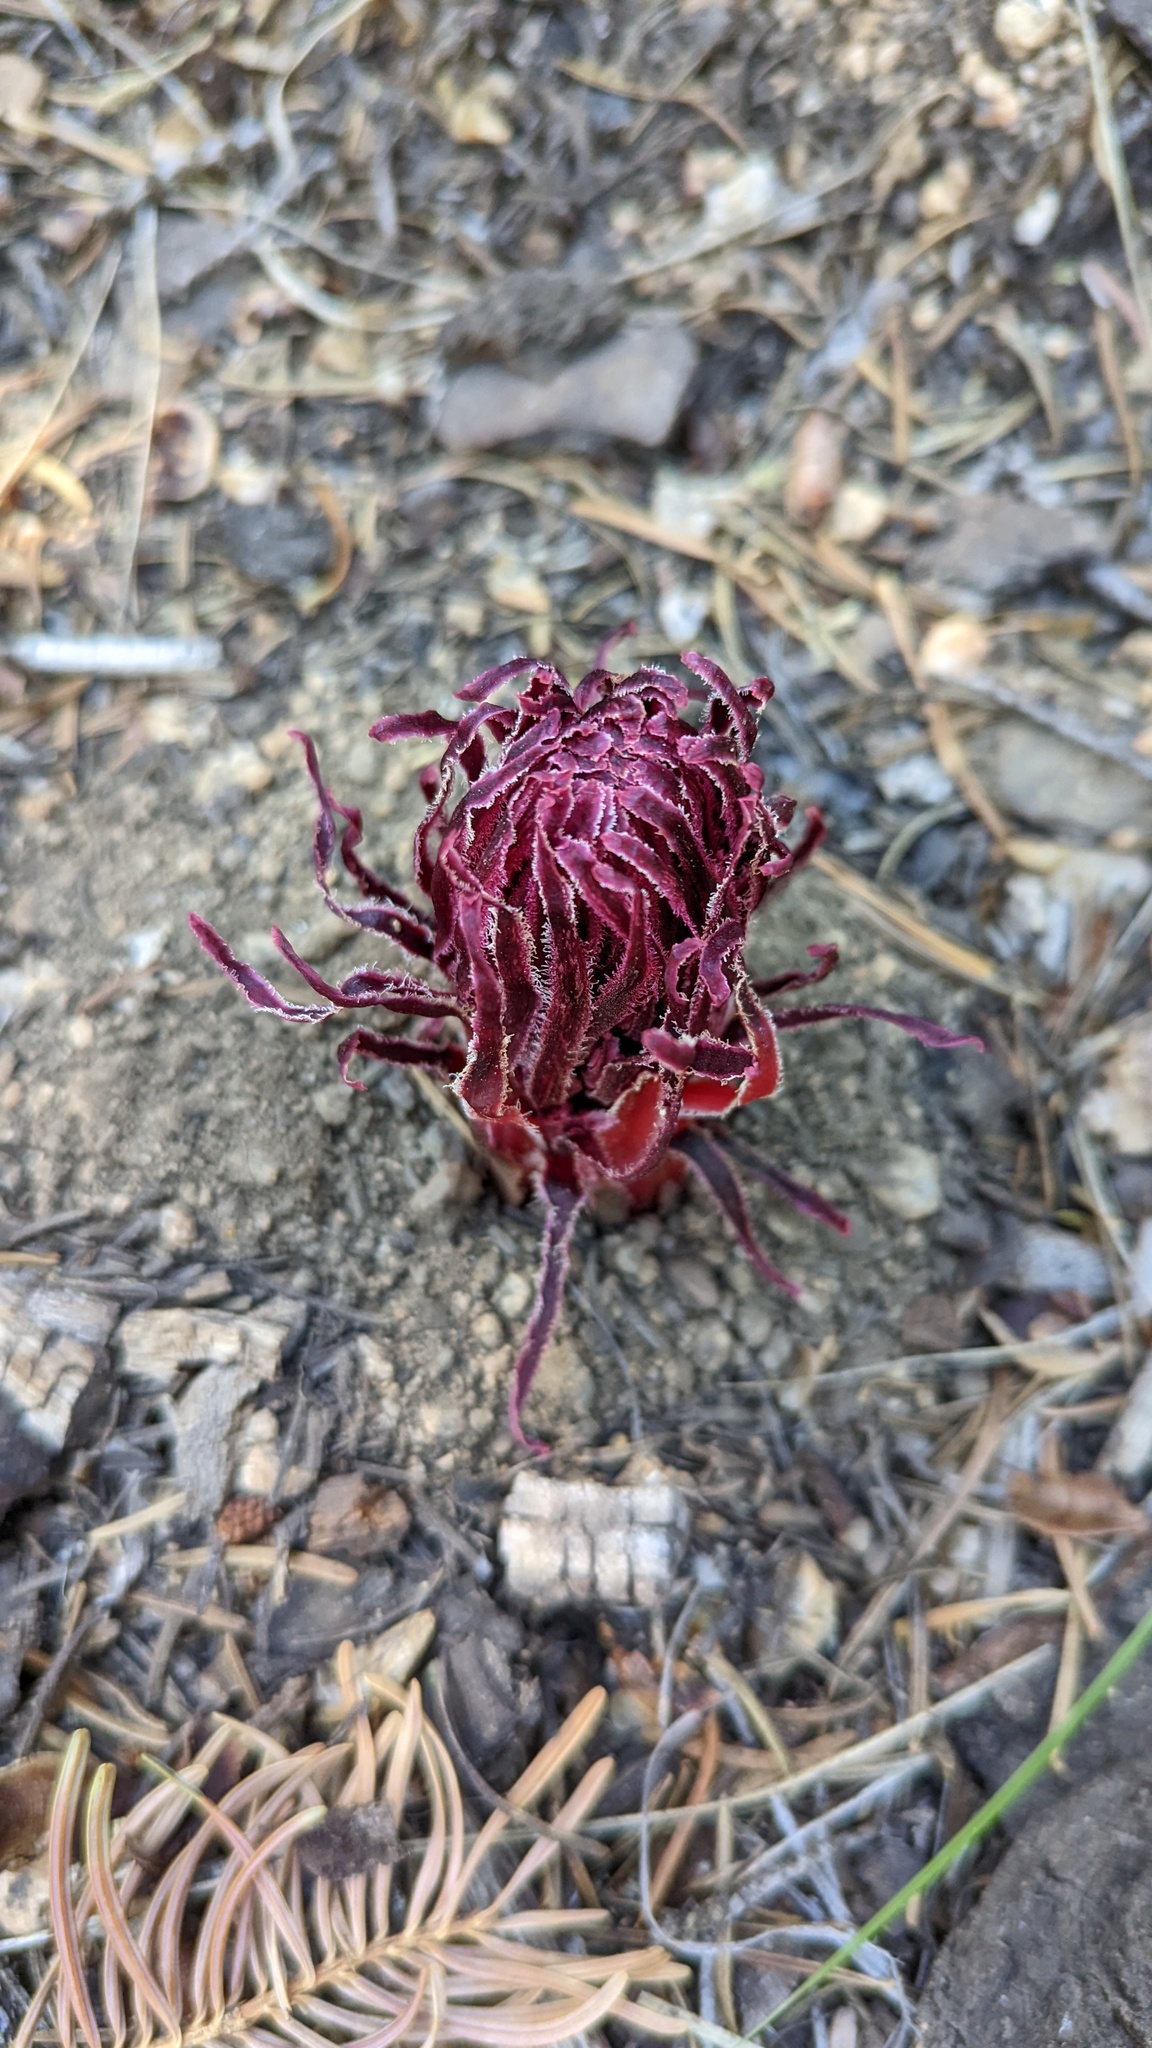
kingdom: Plantae
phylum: Tracheophyta
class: Magnoliopsida
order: Ericales
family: Ericaceae
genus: Sarcodes
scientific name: Sarcodes sanguinea
